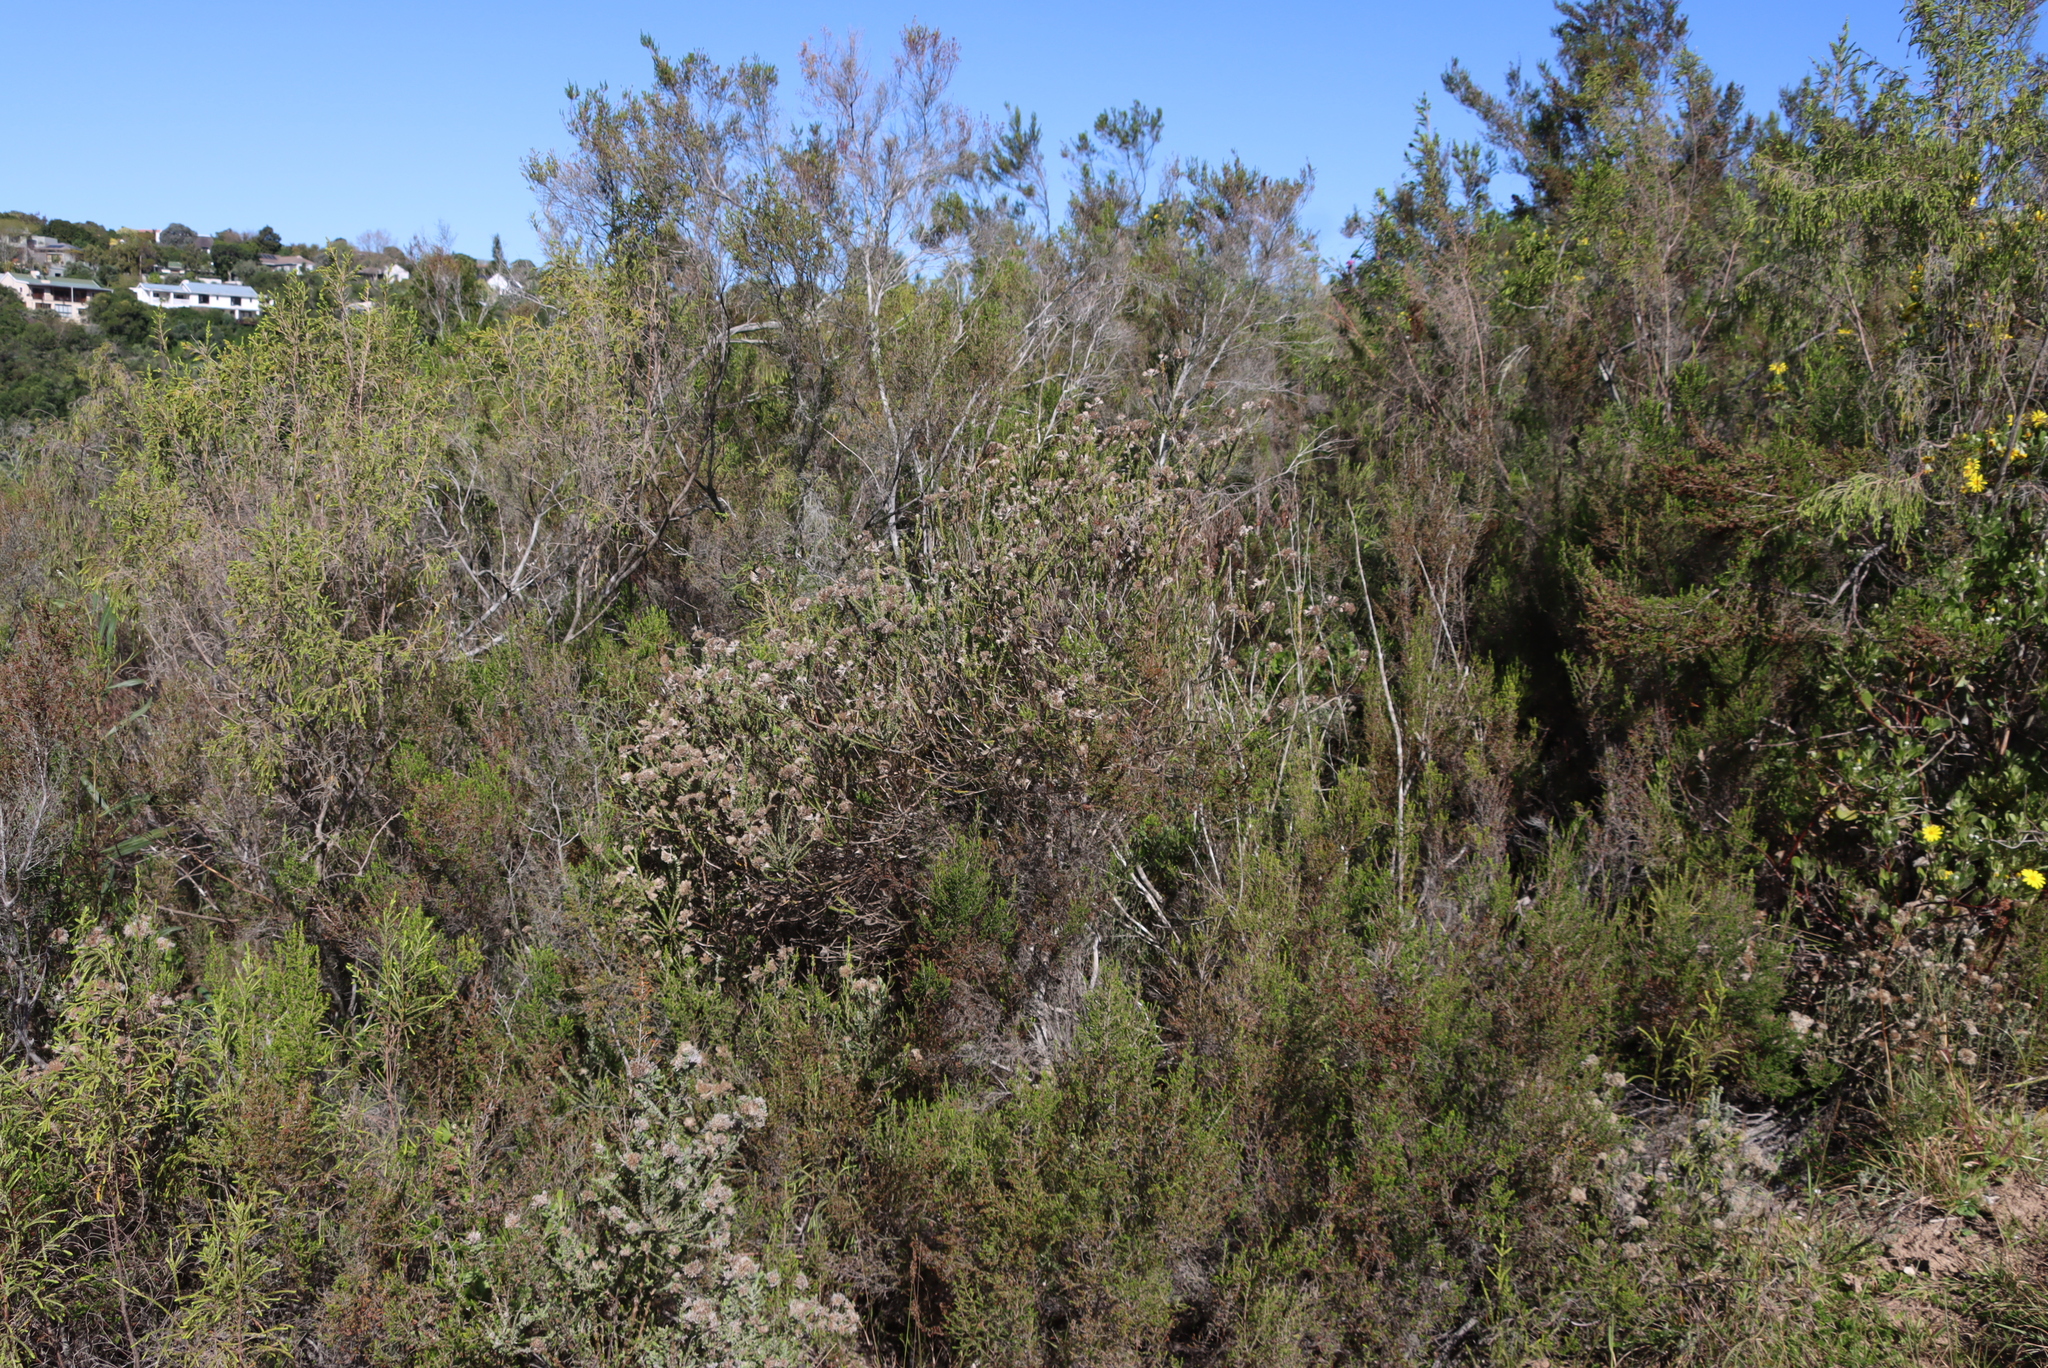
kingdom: Plantae
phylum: Tracheophyta
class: Magnoliopsida
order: Asterales
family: Asteraceae
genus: Metalasia
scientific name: Metalasia pungens
